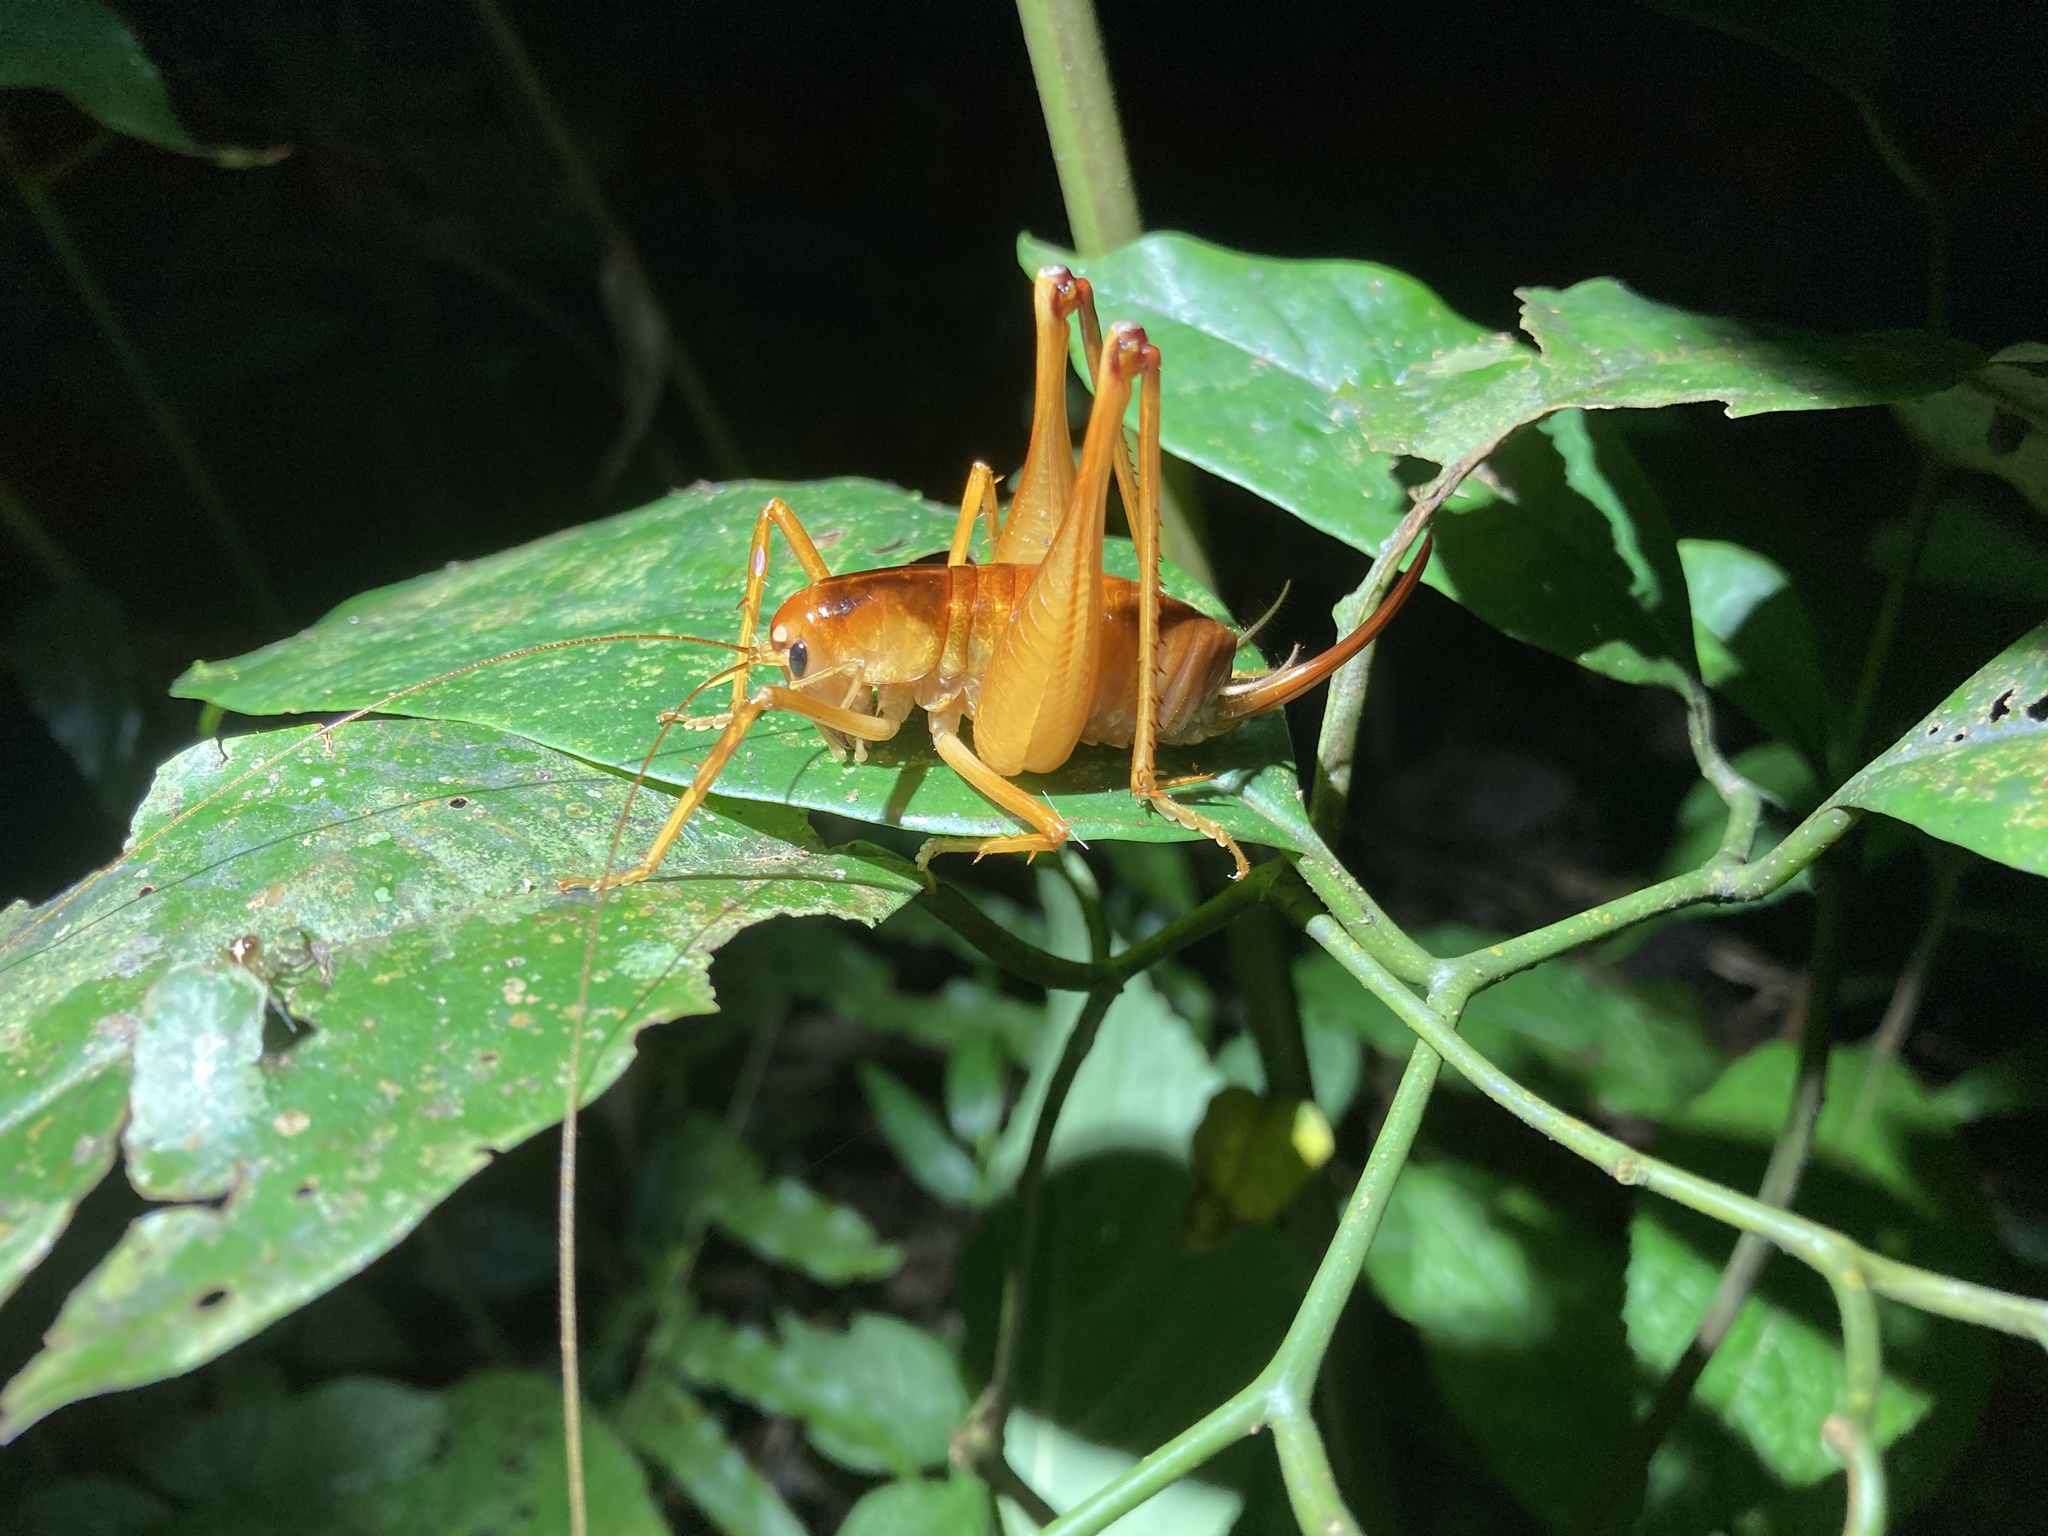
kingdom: Animalia
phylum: Arthropoda
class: Insecta
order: Orthoptera
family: Anostostomatidae
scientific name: Anostostomatidae
